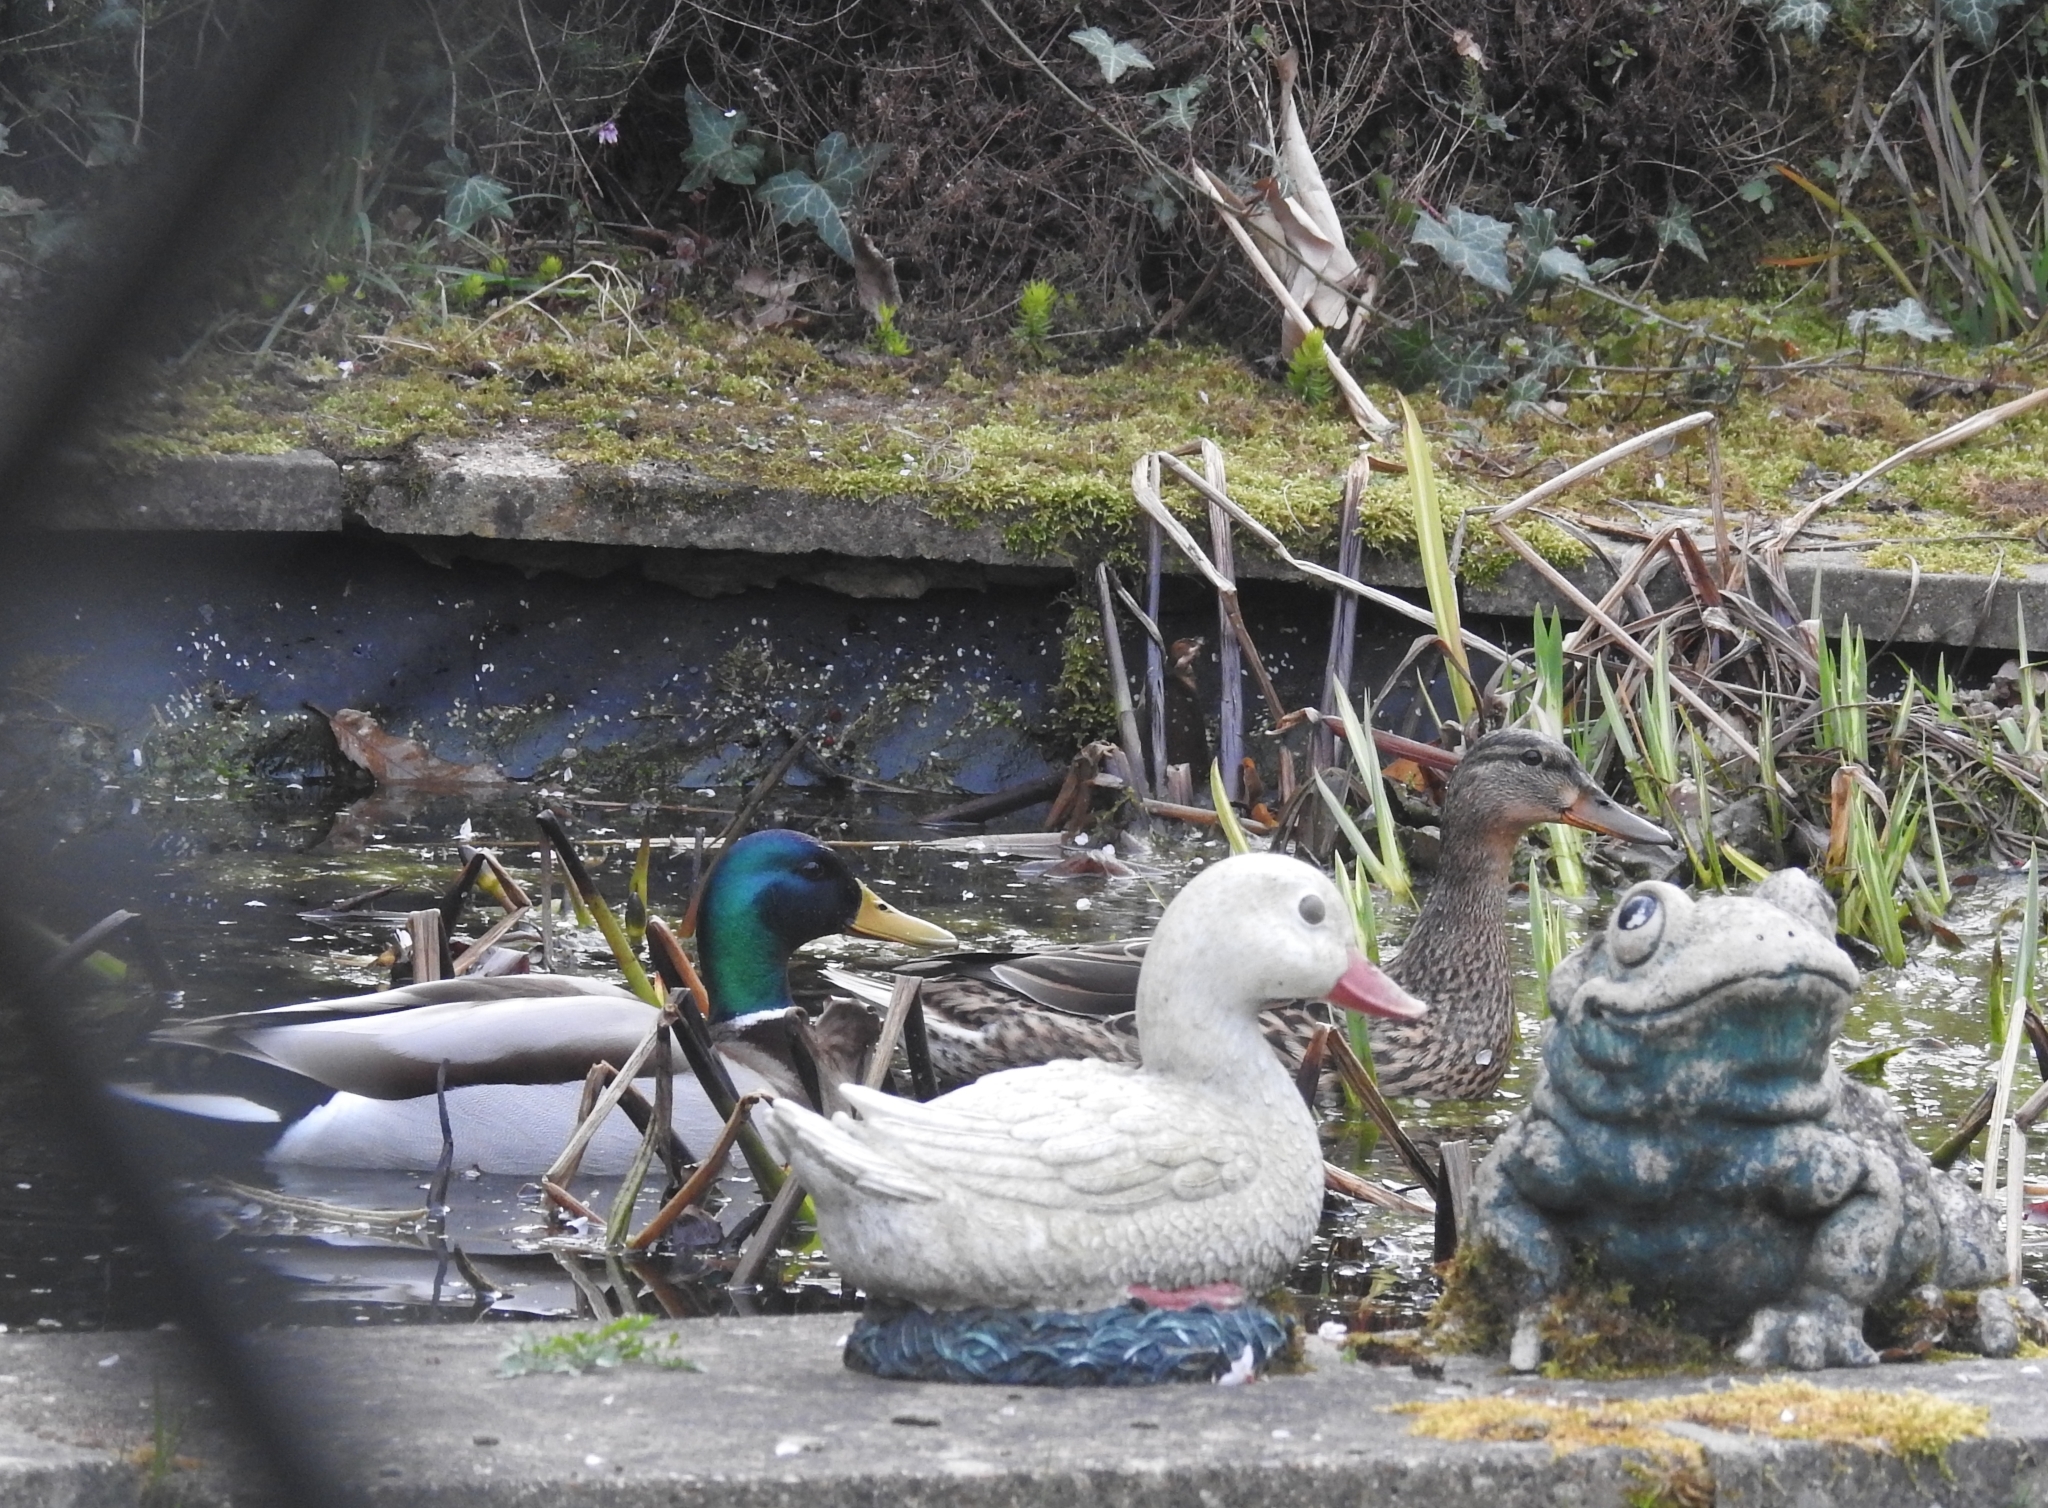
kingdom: Animalia
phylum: Chordata
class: Aves
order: Anseriformes
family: Anatidae
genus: Anas
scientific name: Anas platyrhynchos
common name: Mallard
